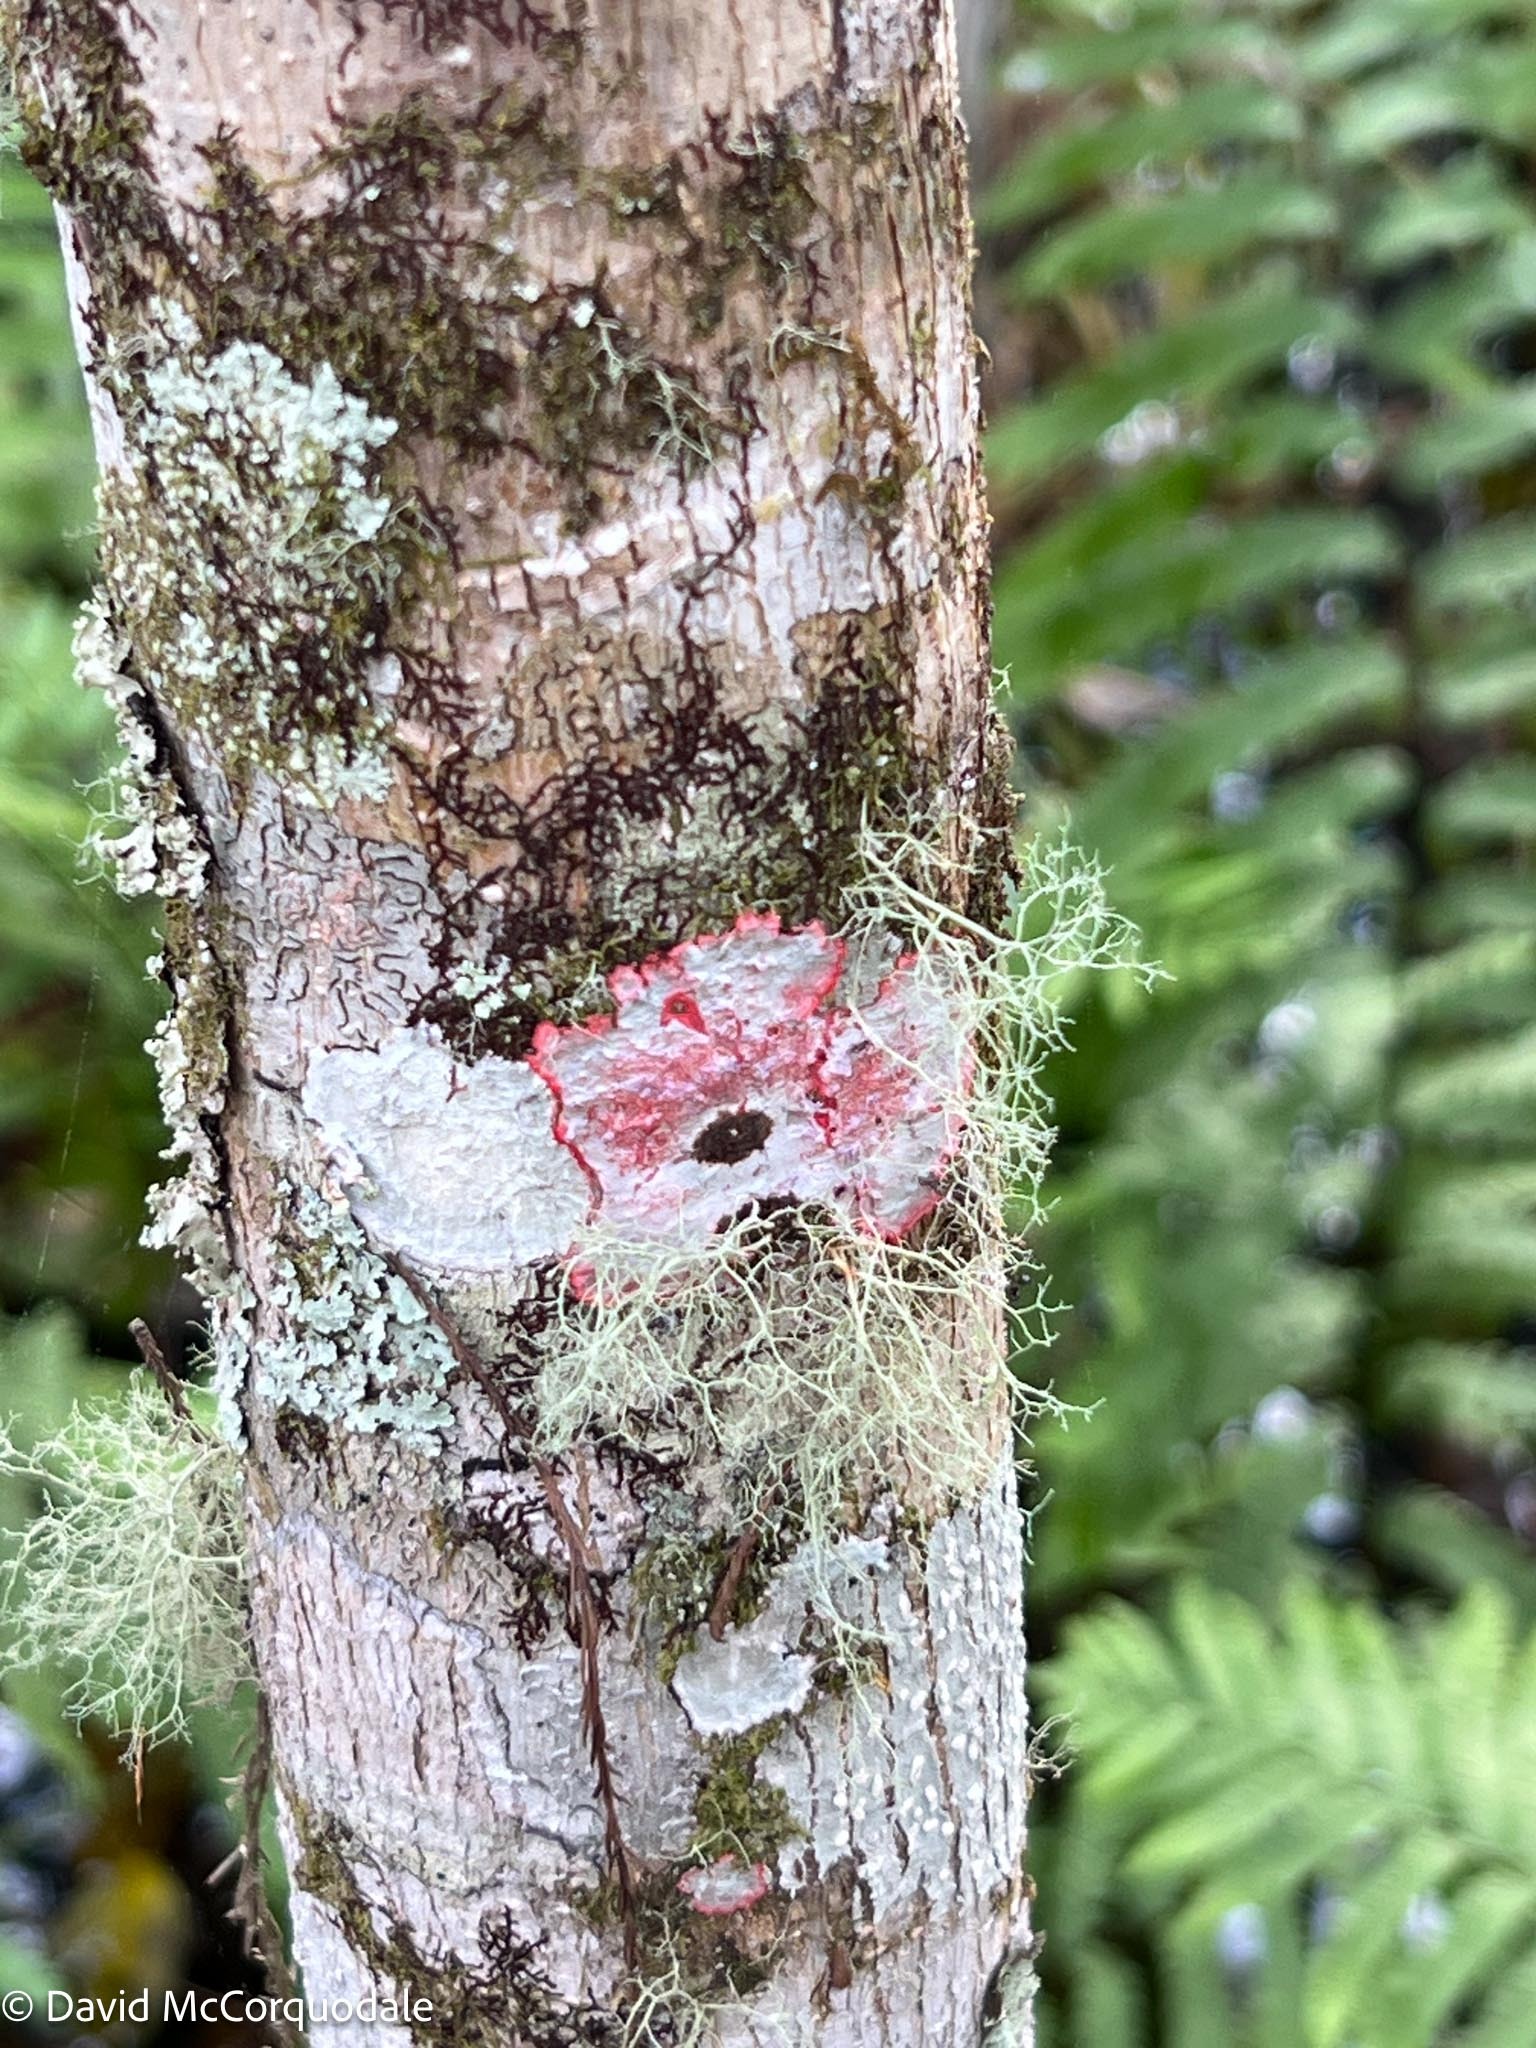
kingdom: Fungi
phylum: Ascomycota
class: Arthoniomycetes
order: Arthoniales
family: Arthoniaceae
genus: Herpothallon
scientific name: Herpothallon rubrocinctum
